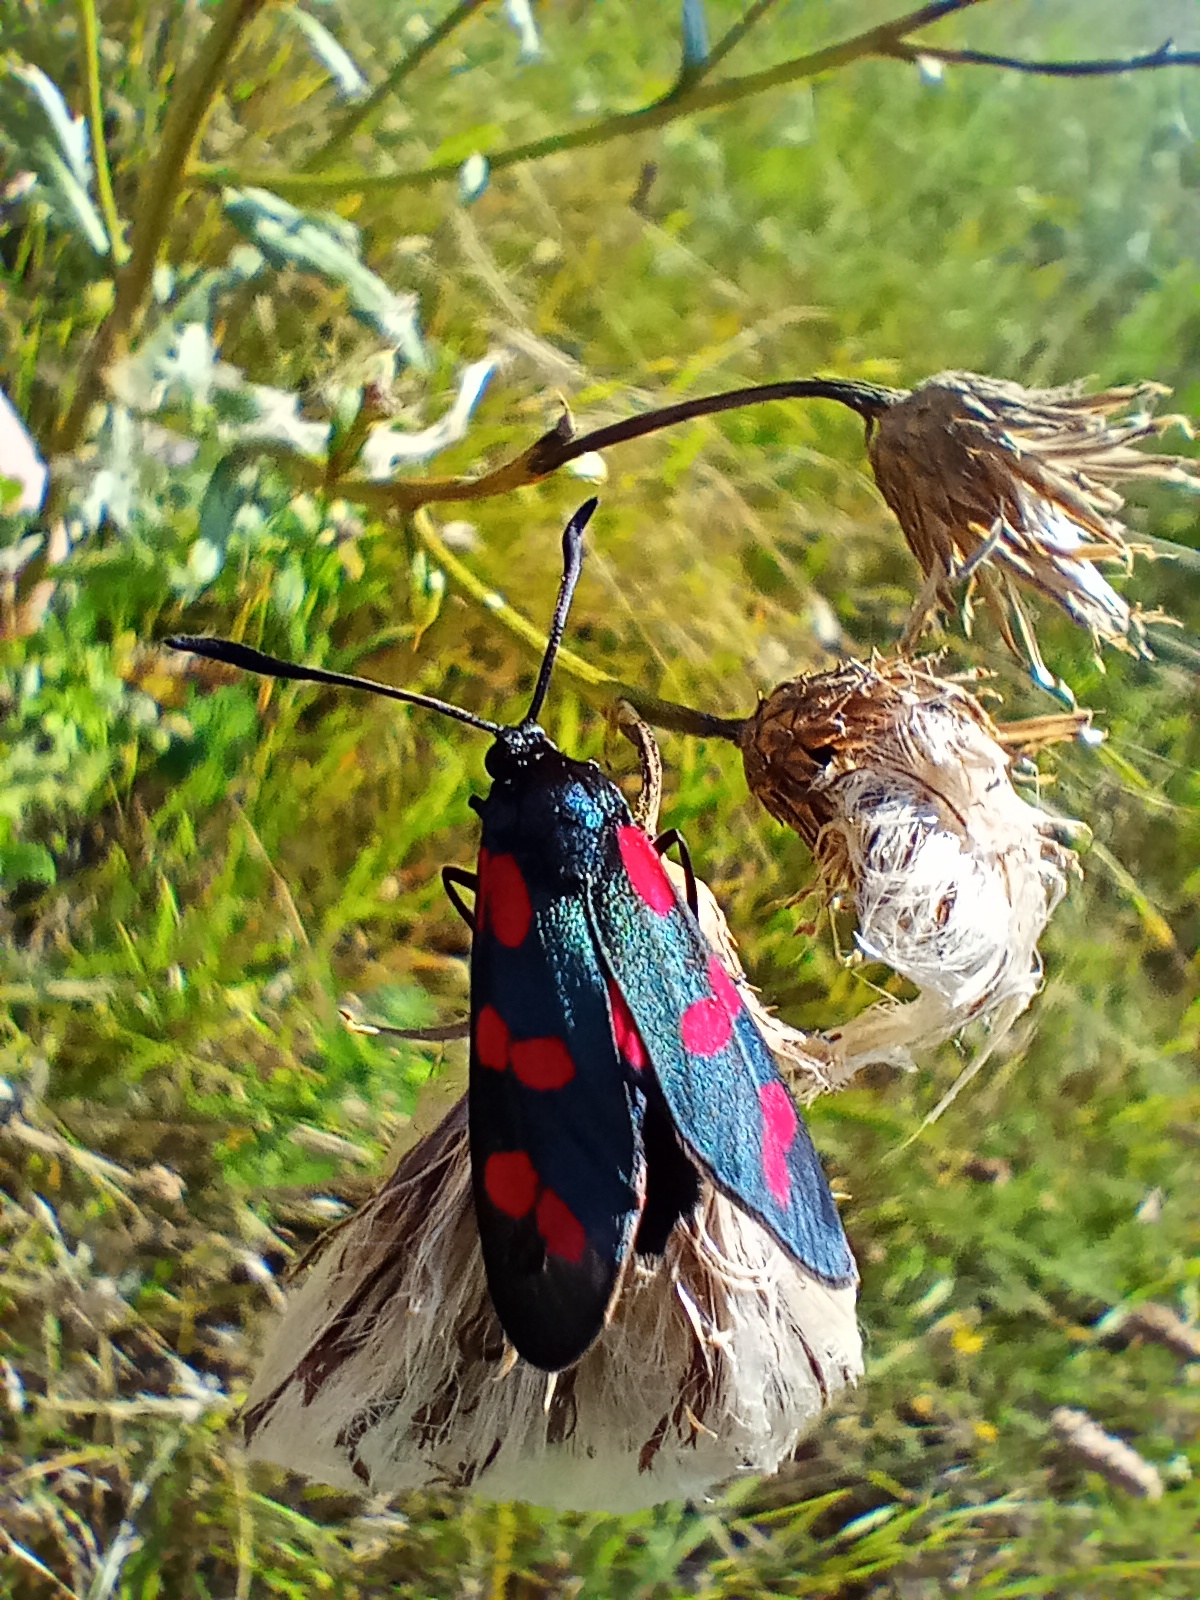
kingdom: Animalia
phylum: Arthropoda
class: Insecta
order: Lepidoptera
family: Zygaenidae
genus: Zygaena
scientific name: Zygaena filipendulae
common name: Six-spot burnet
